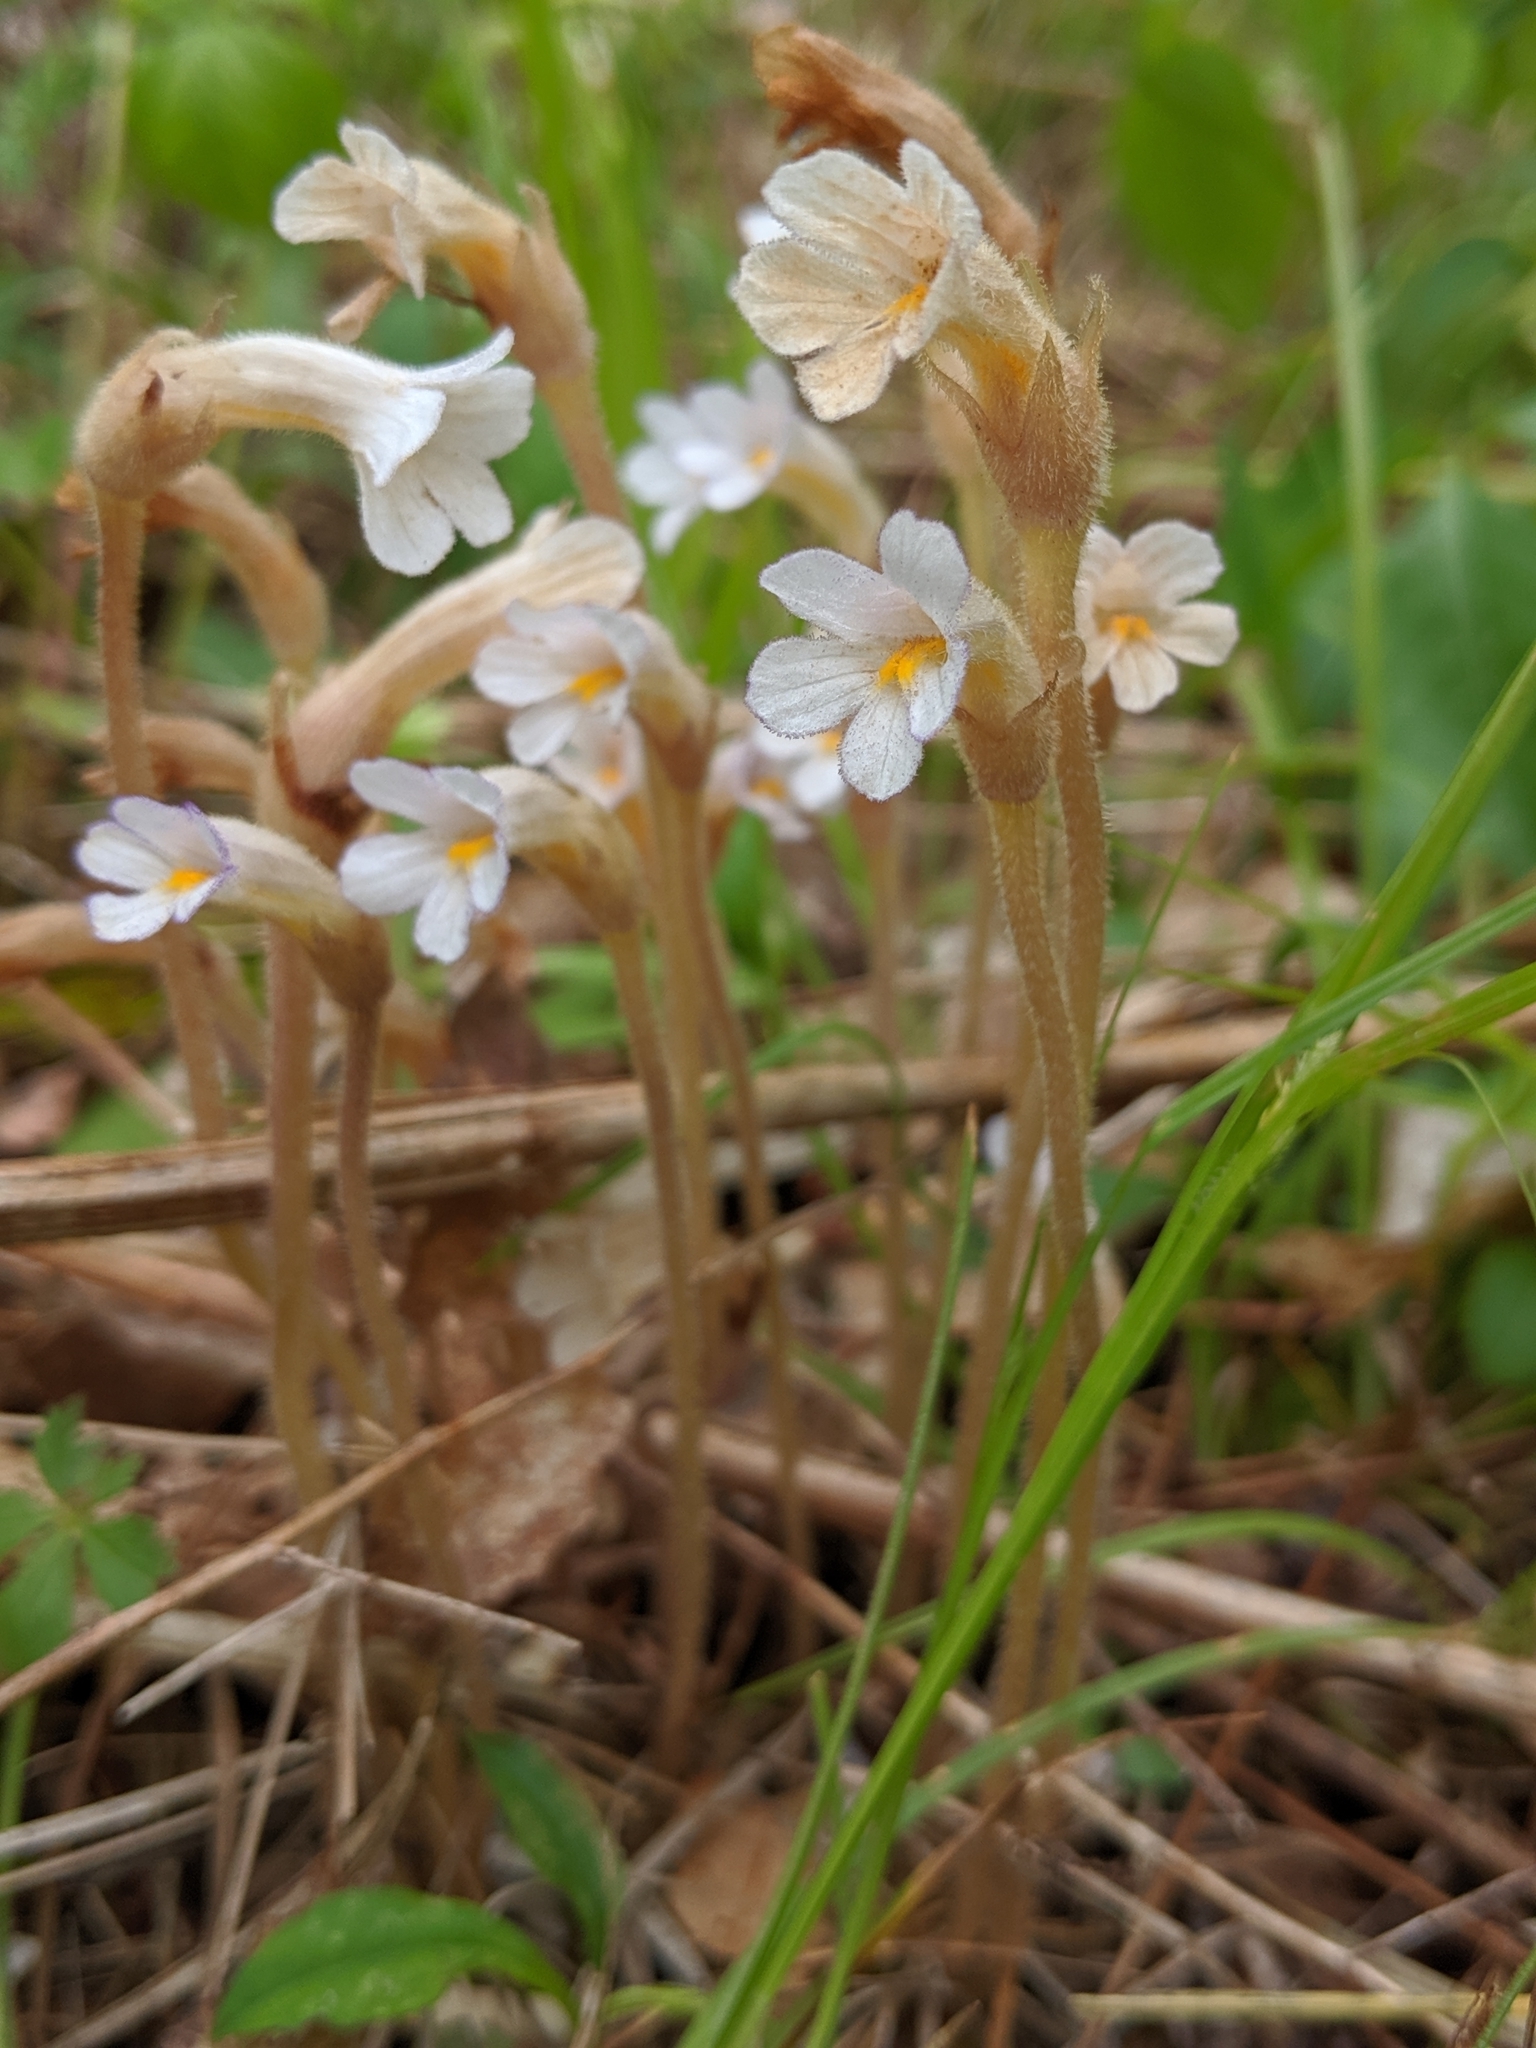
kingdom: Plantae
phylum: Tracheophyta
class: Magnoliopsida
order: Lamiales
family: Orobanchaceae
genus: Aphyllon
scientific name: Aphyllon uniflorum
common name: One-flowered broomrape
